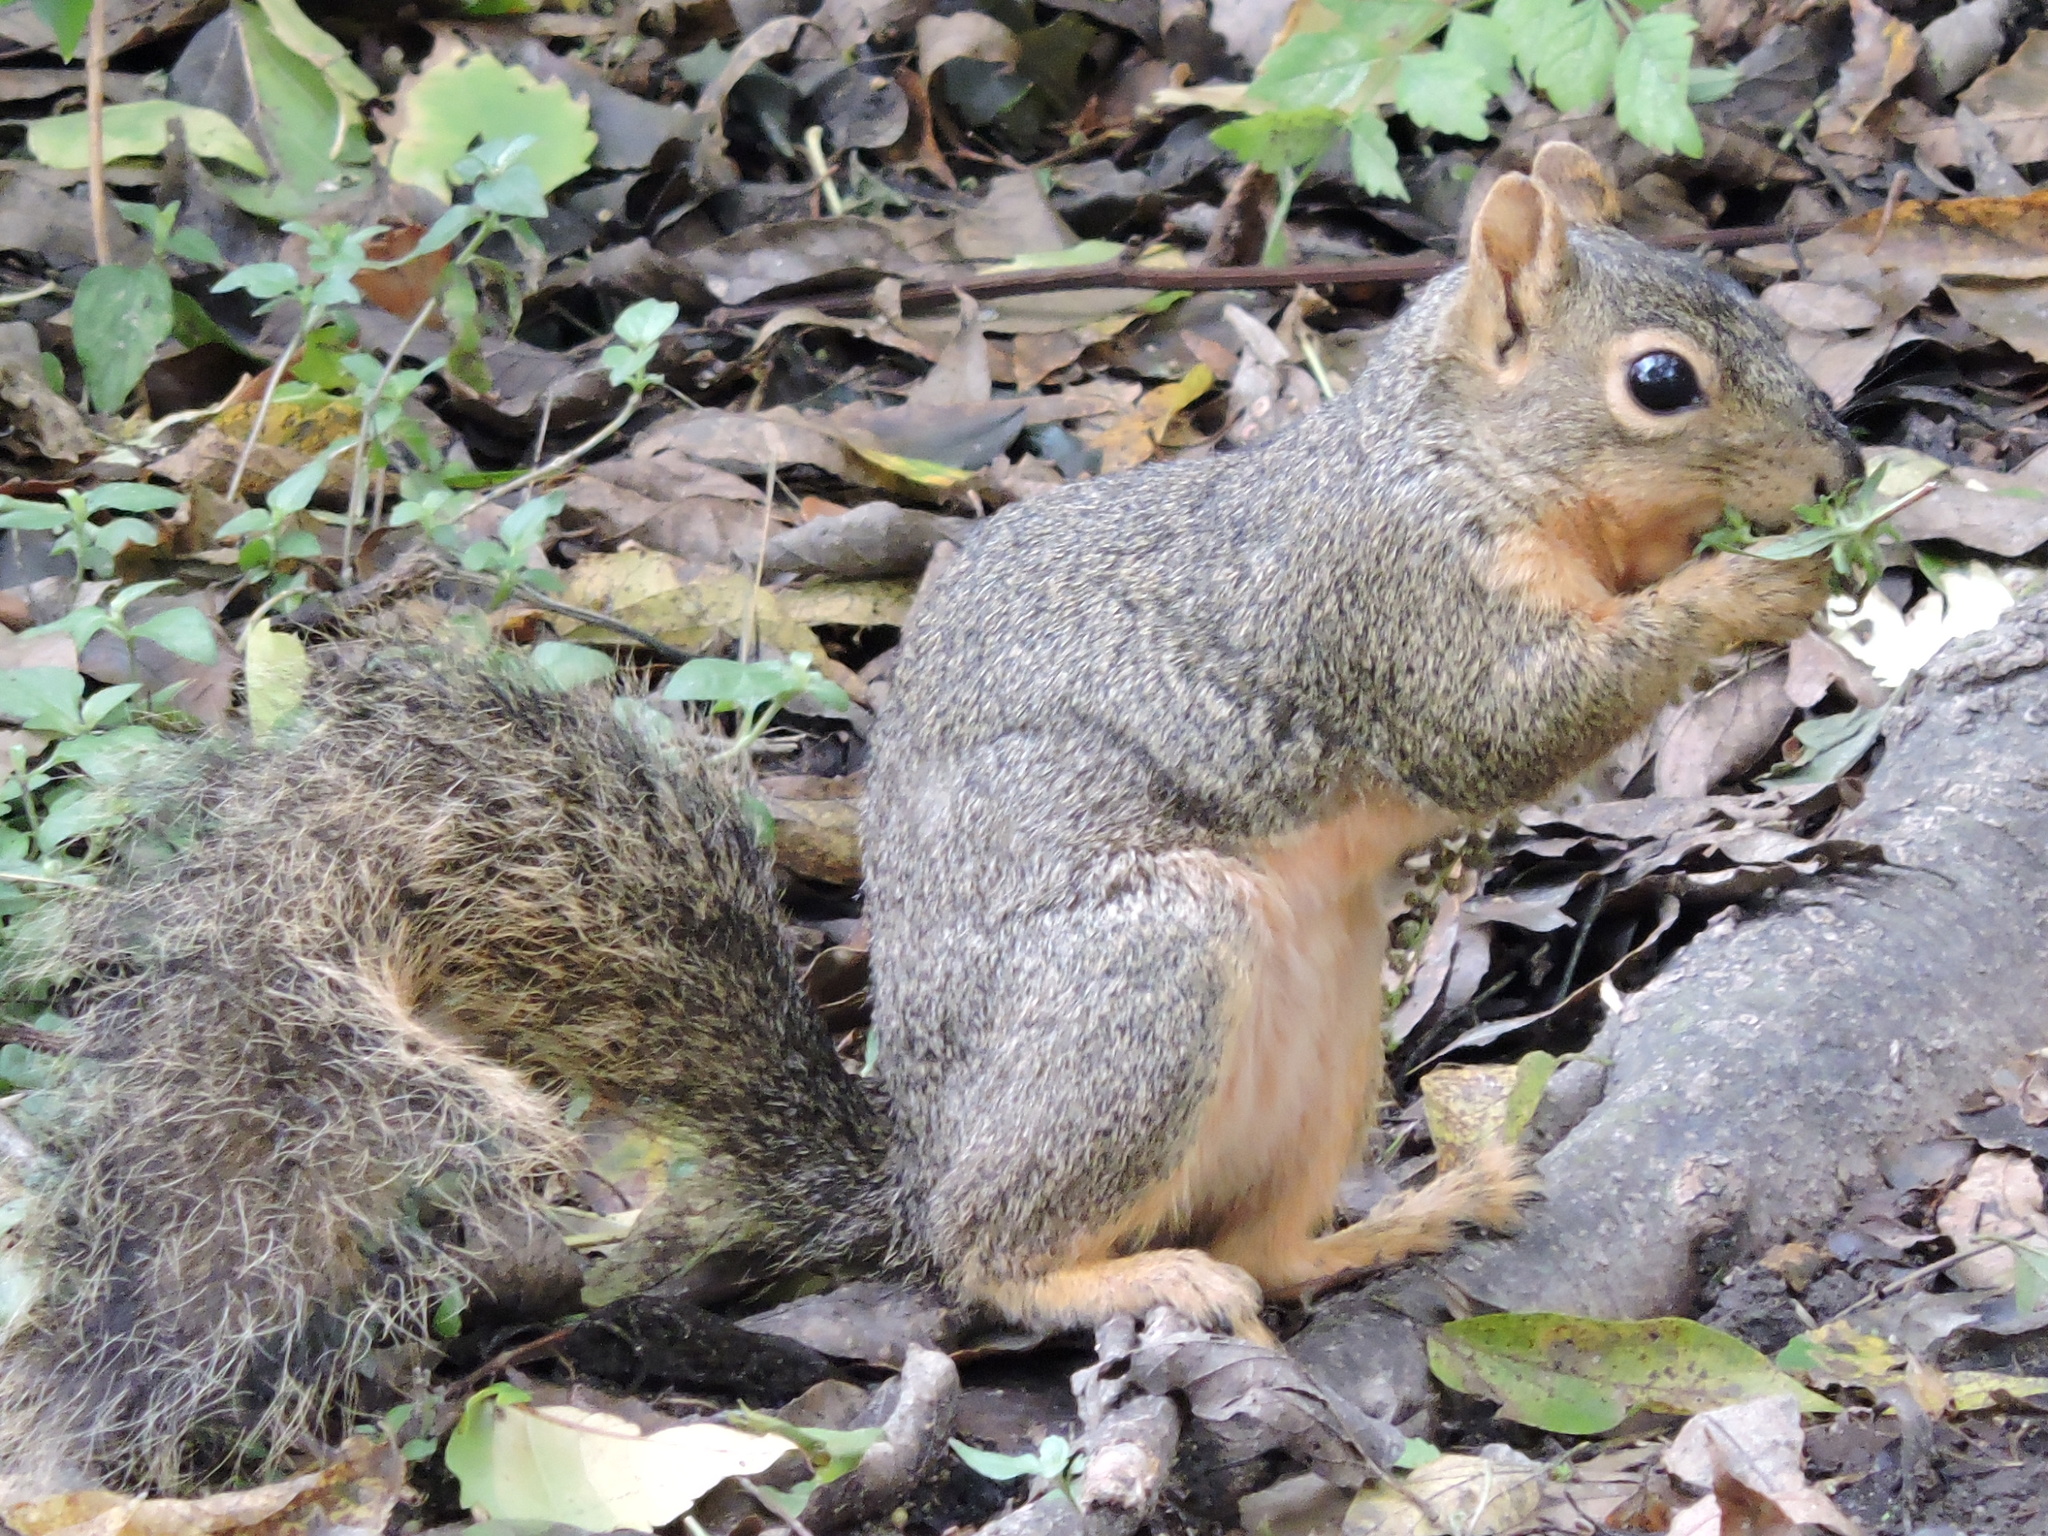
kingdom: Animalia
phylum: Chordata
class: Mammalia
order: Rodentia
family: Sciuridae
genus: Sciurus
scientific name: Sciurus niger
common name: Fox squirrel
